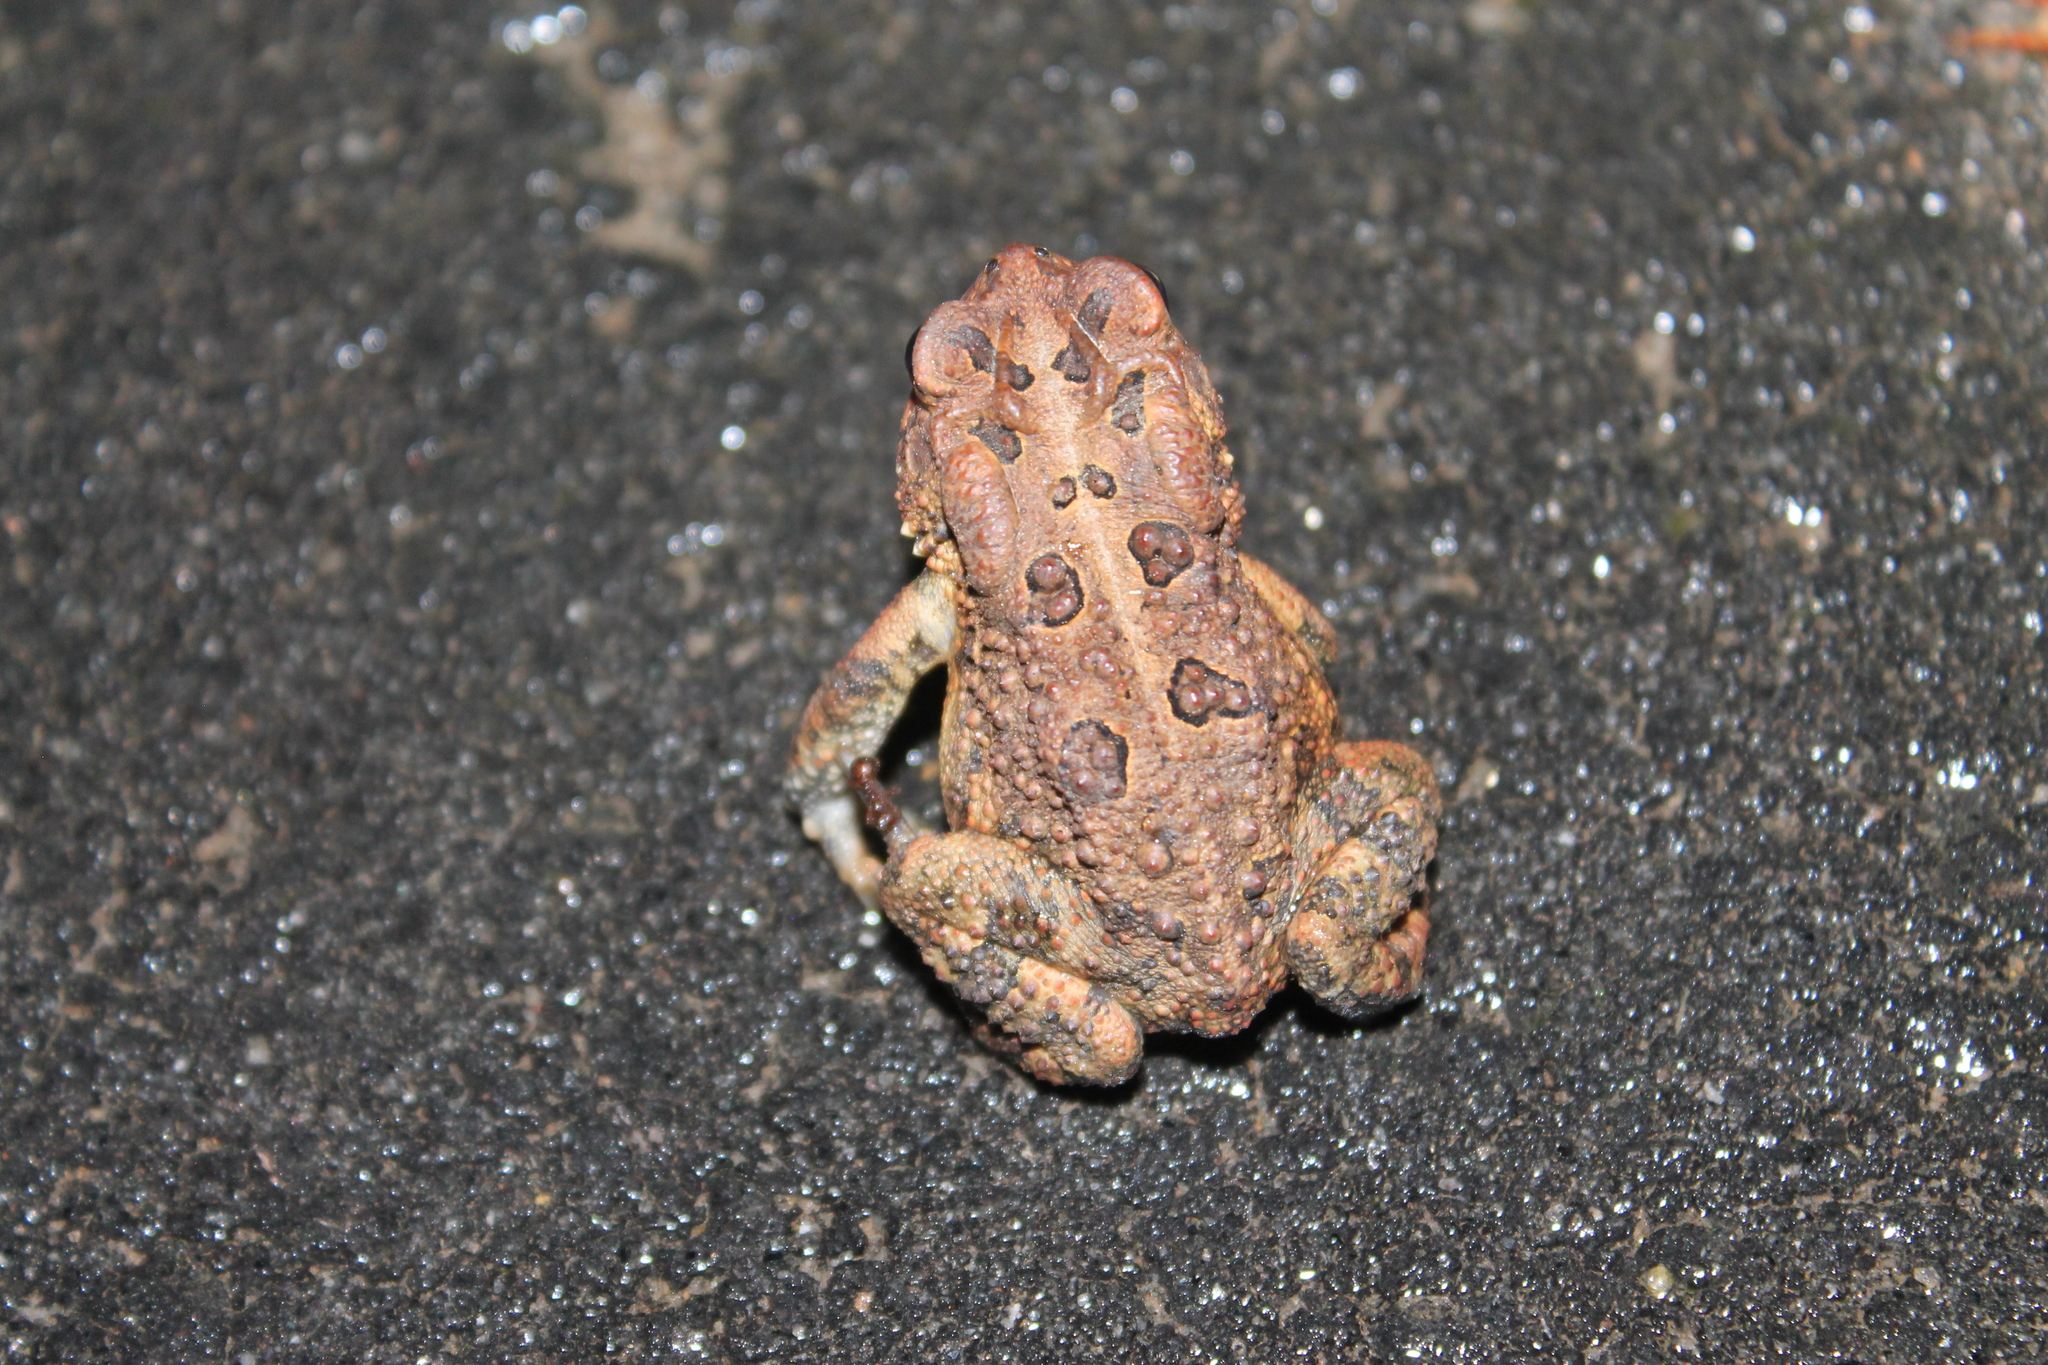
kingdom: Animalia
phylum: Chordata
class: Amphibia
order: Anura
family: Bufonidae
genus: Anaxyrus
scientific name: Anaxyrus terrestris
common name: Southern toad
